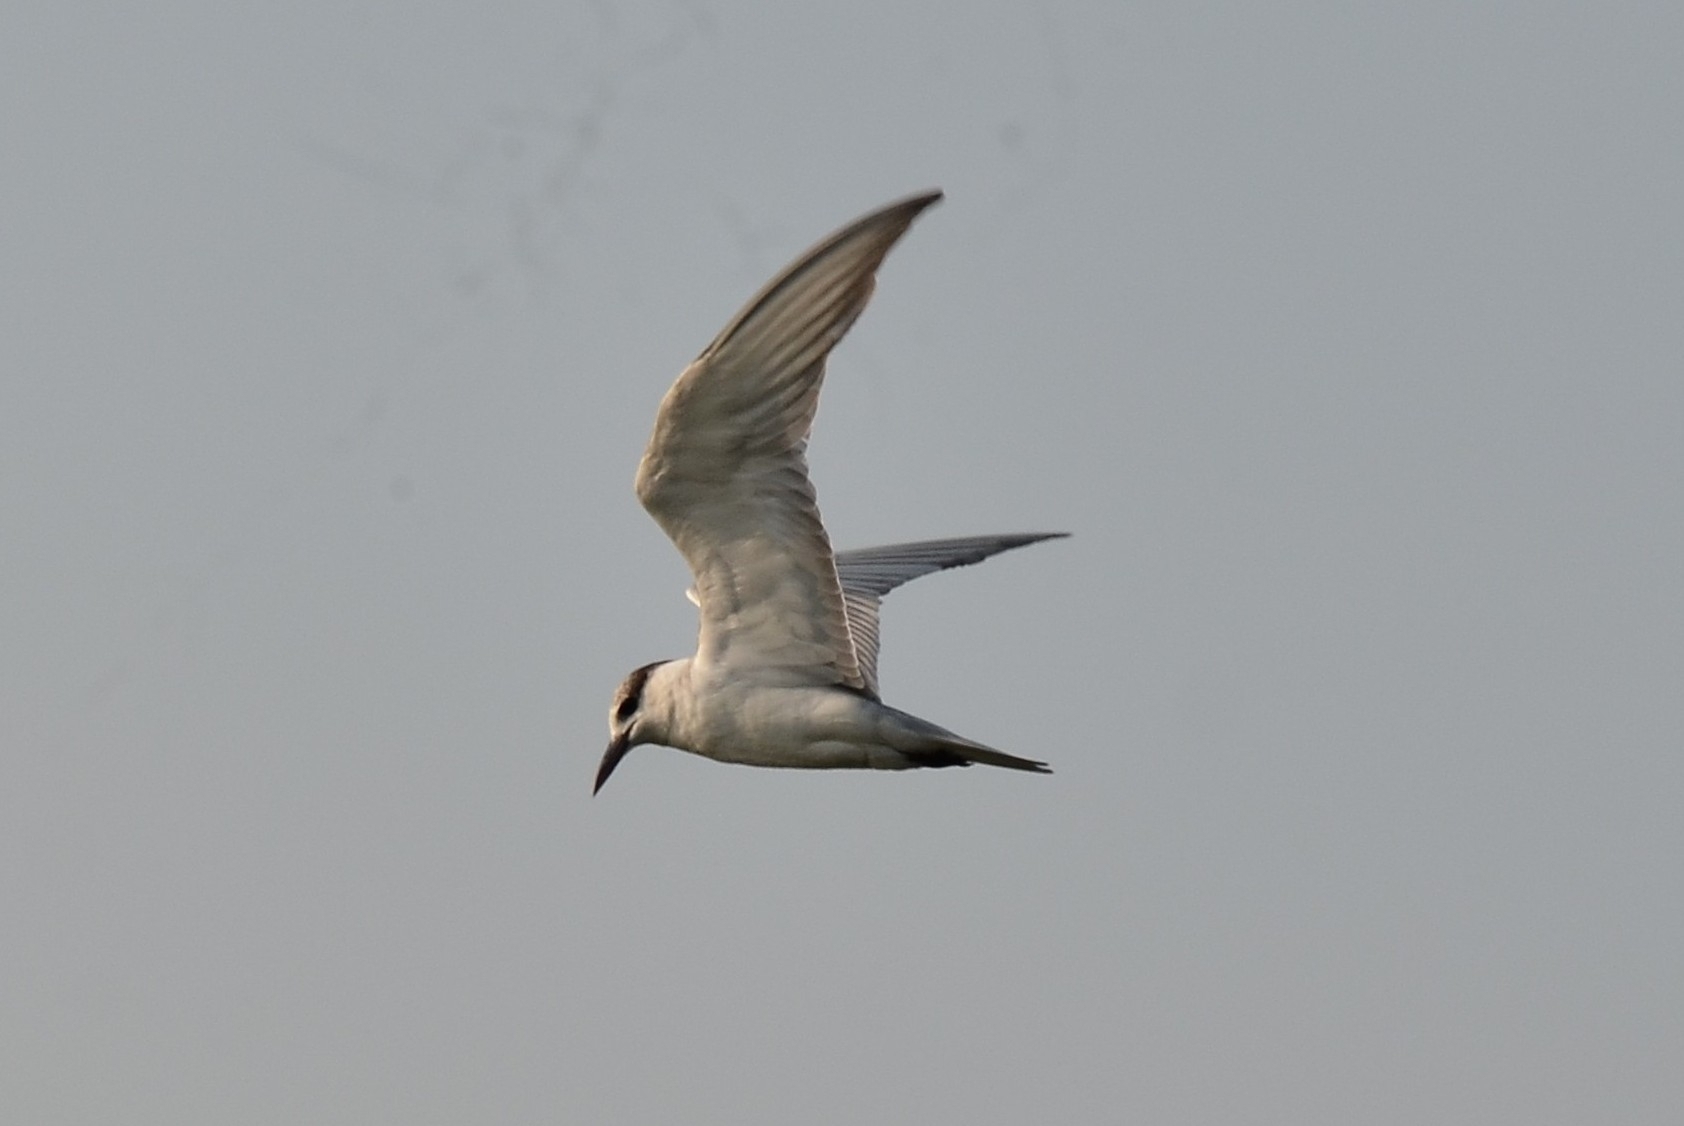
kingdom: Animalia
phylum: Chordata
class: Aves
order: Charadriiformes
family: Laridae
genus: Chlidonias
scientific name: Chlidonias hybrida
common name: Whiskered tern
